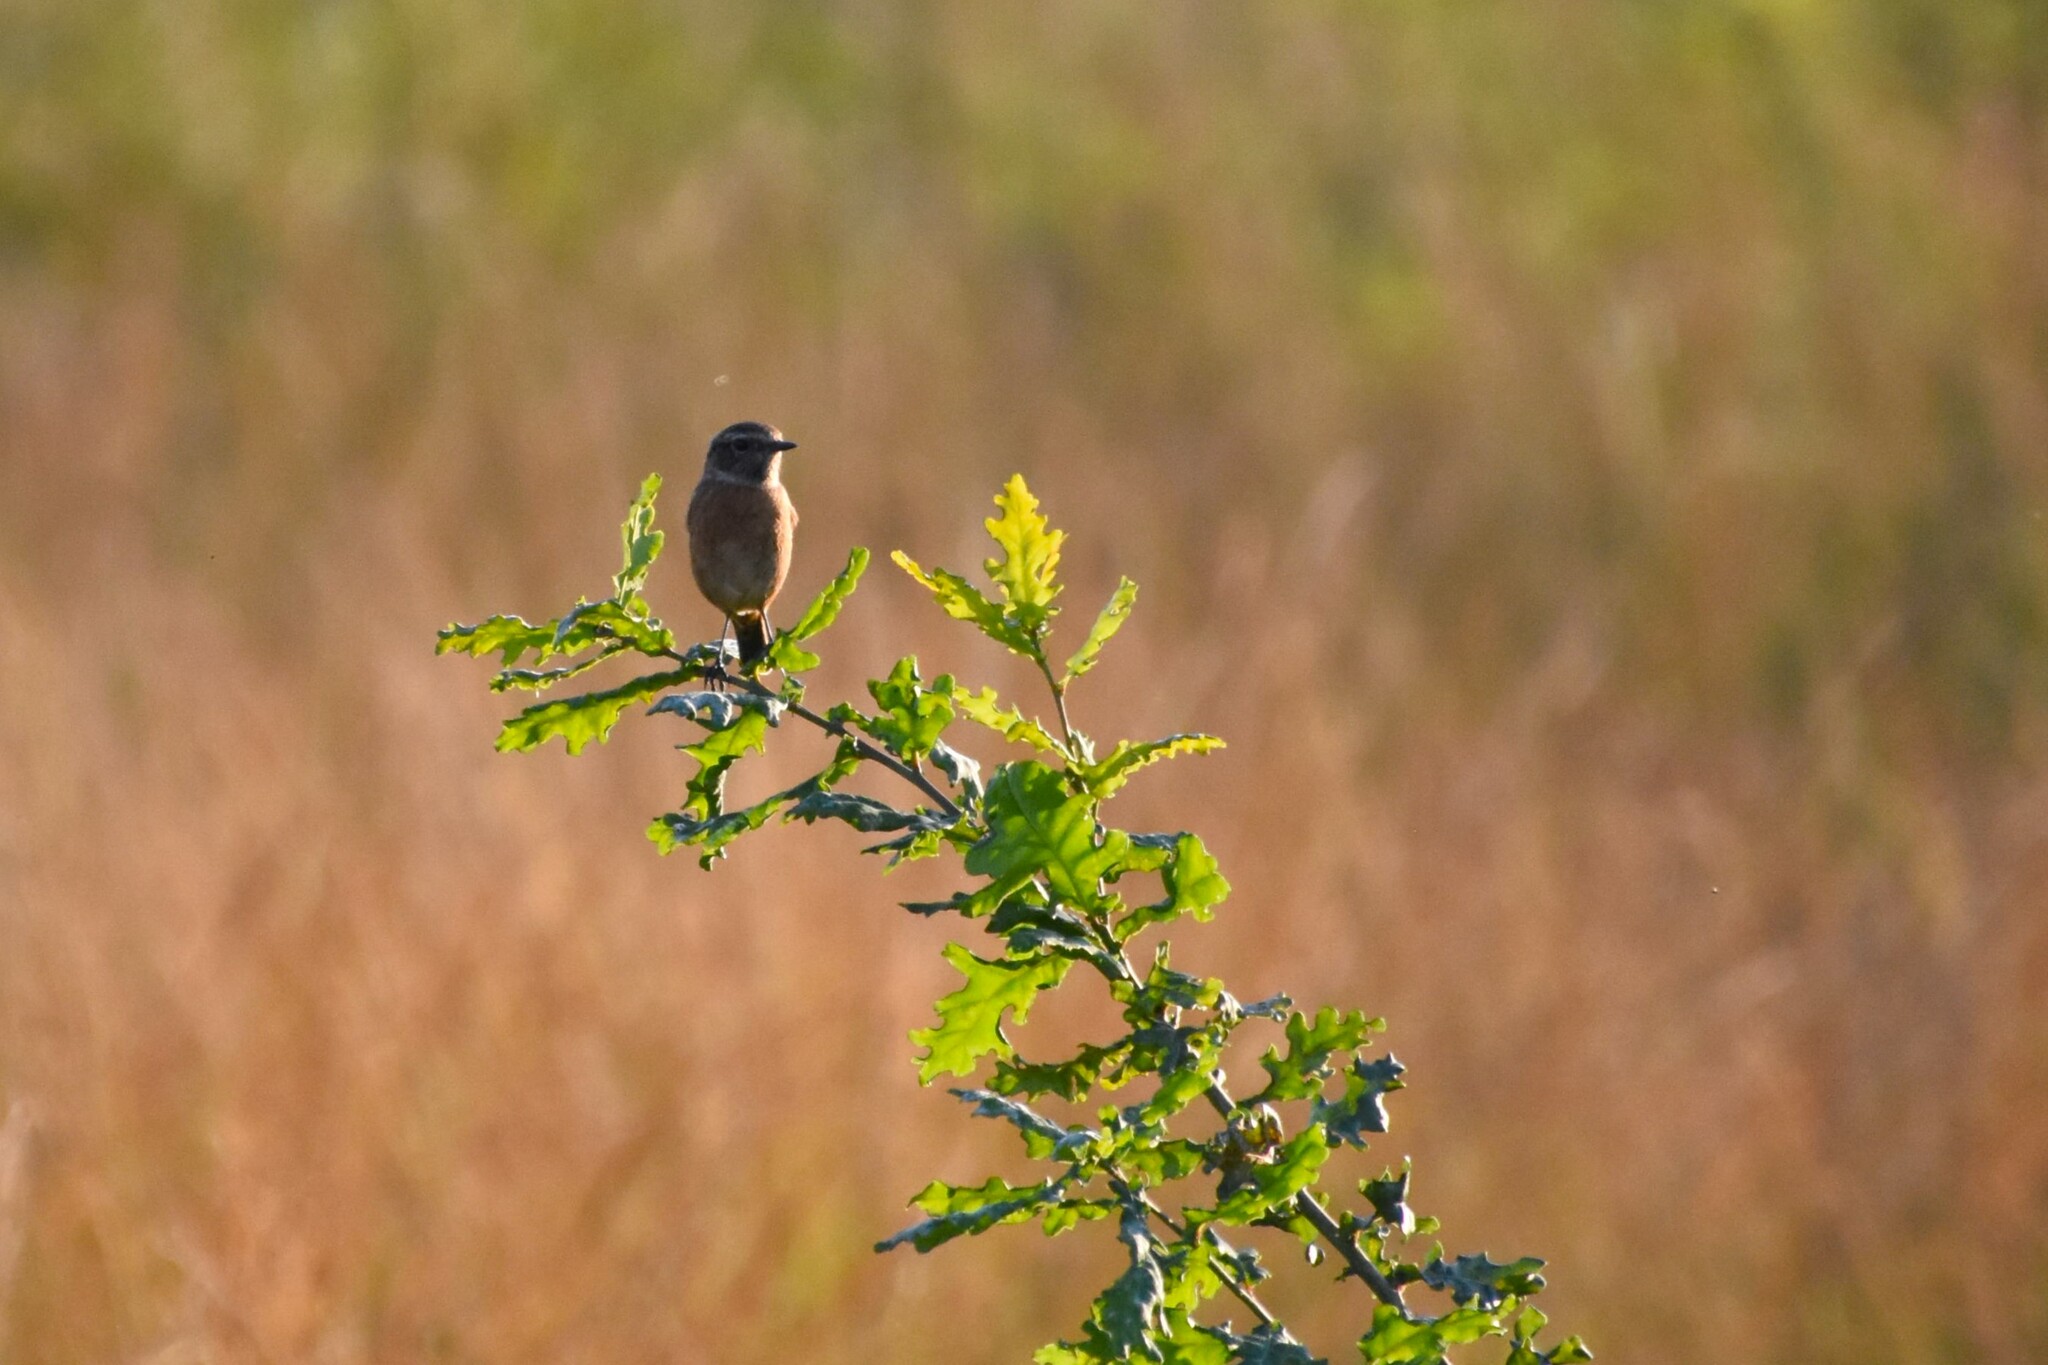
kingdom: Animalia
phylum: Chordata
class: Aves
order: Passeriformes
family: Muscicapidae
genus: Saxicola
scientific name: Saxicola rubicola
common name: European stonechat
